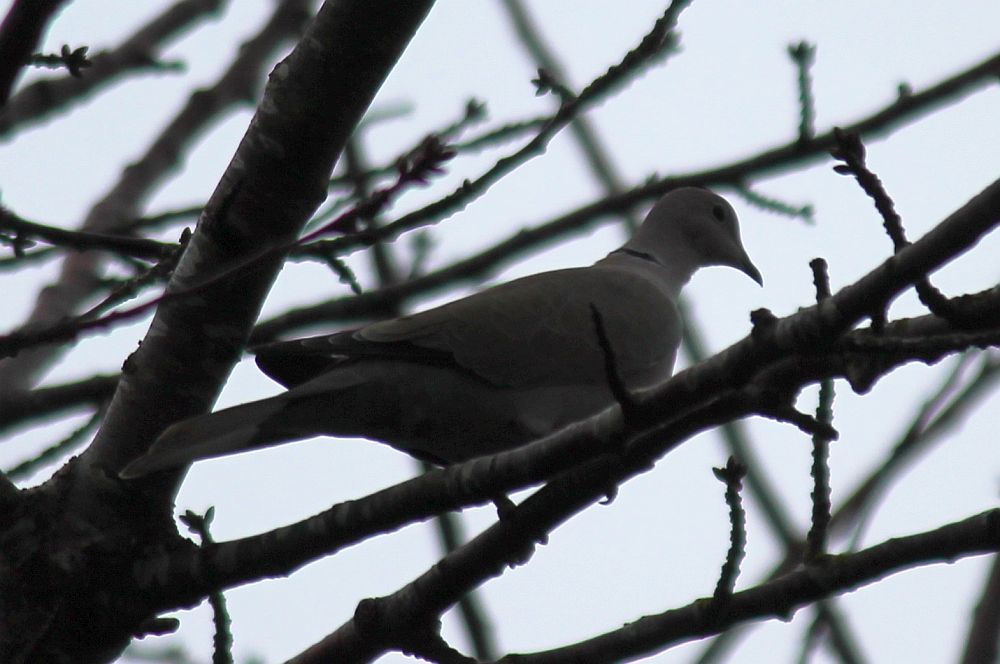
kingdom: Animalia
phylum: Chordata
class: Aves
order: Columbiformes
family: Columbidae
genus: Streptopelia
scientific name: Streptopelia decaocto
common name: Eurasian collared dove
